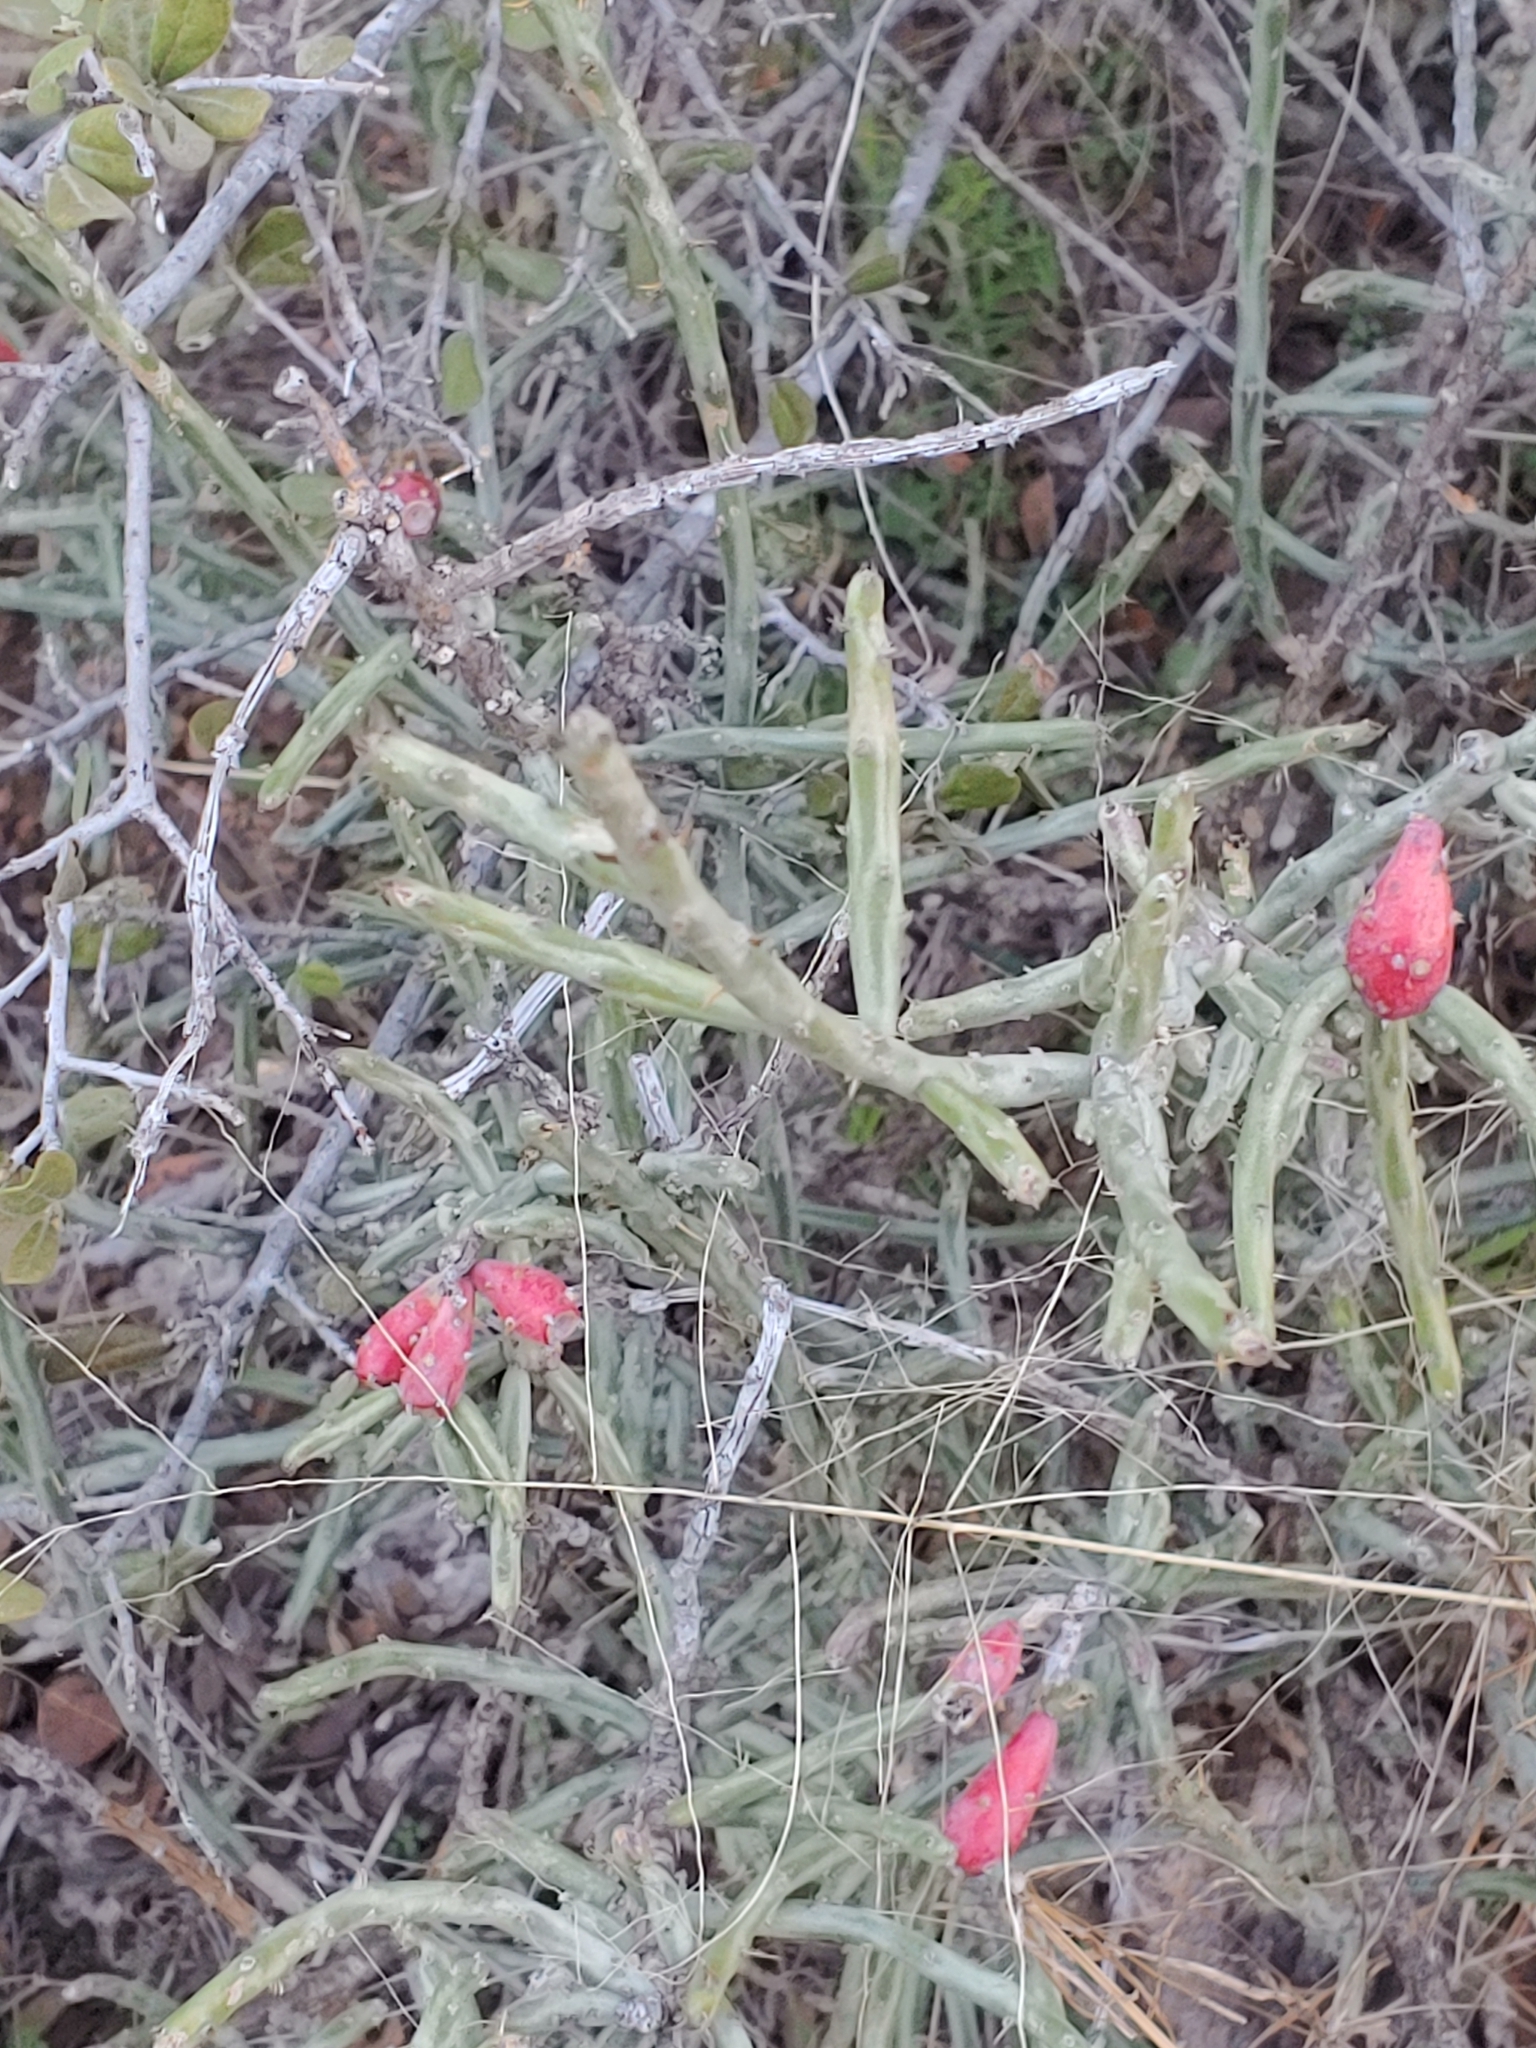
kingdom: Plantae
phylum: Tracheophyta
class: Magnoliopsida
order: Caryophyllales
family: Cactaceae
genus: Cylindropuntia
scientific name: Cylindropuntia leptocaulis
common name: Christmas cactus
